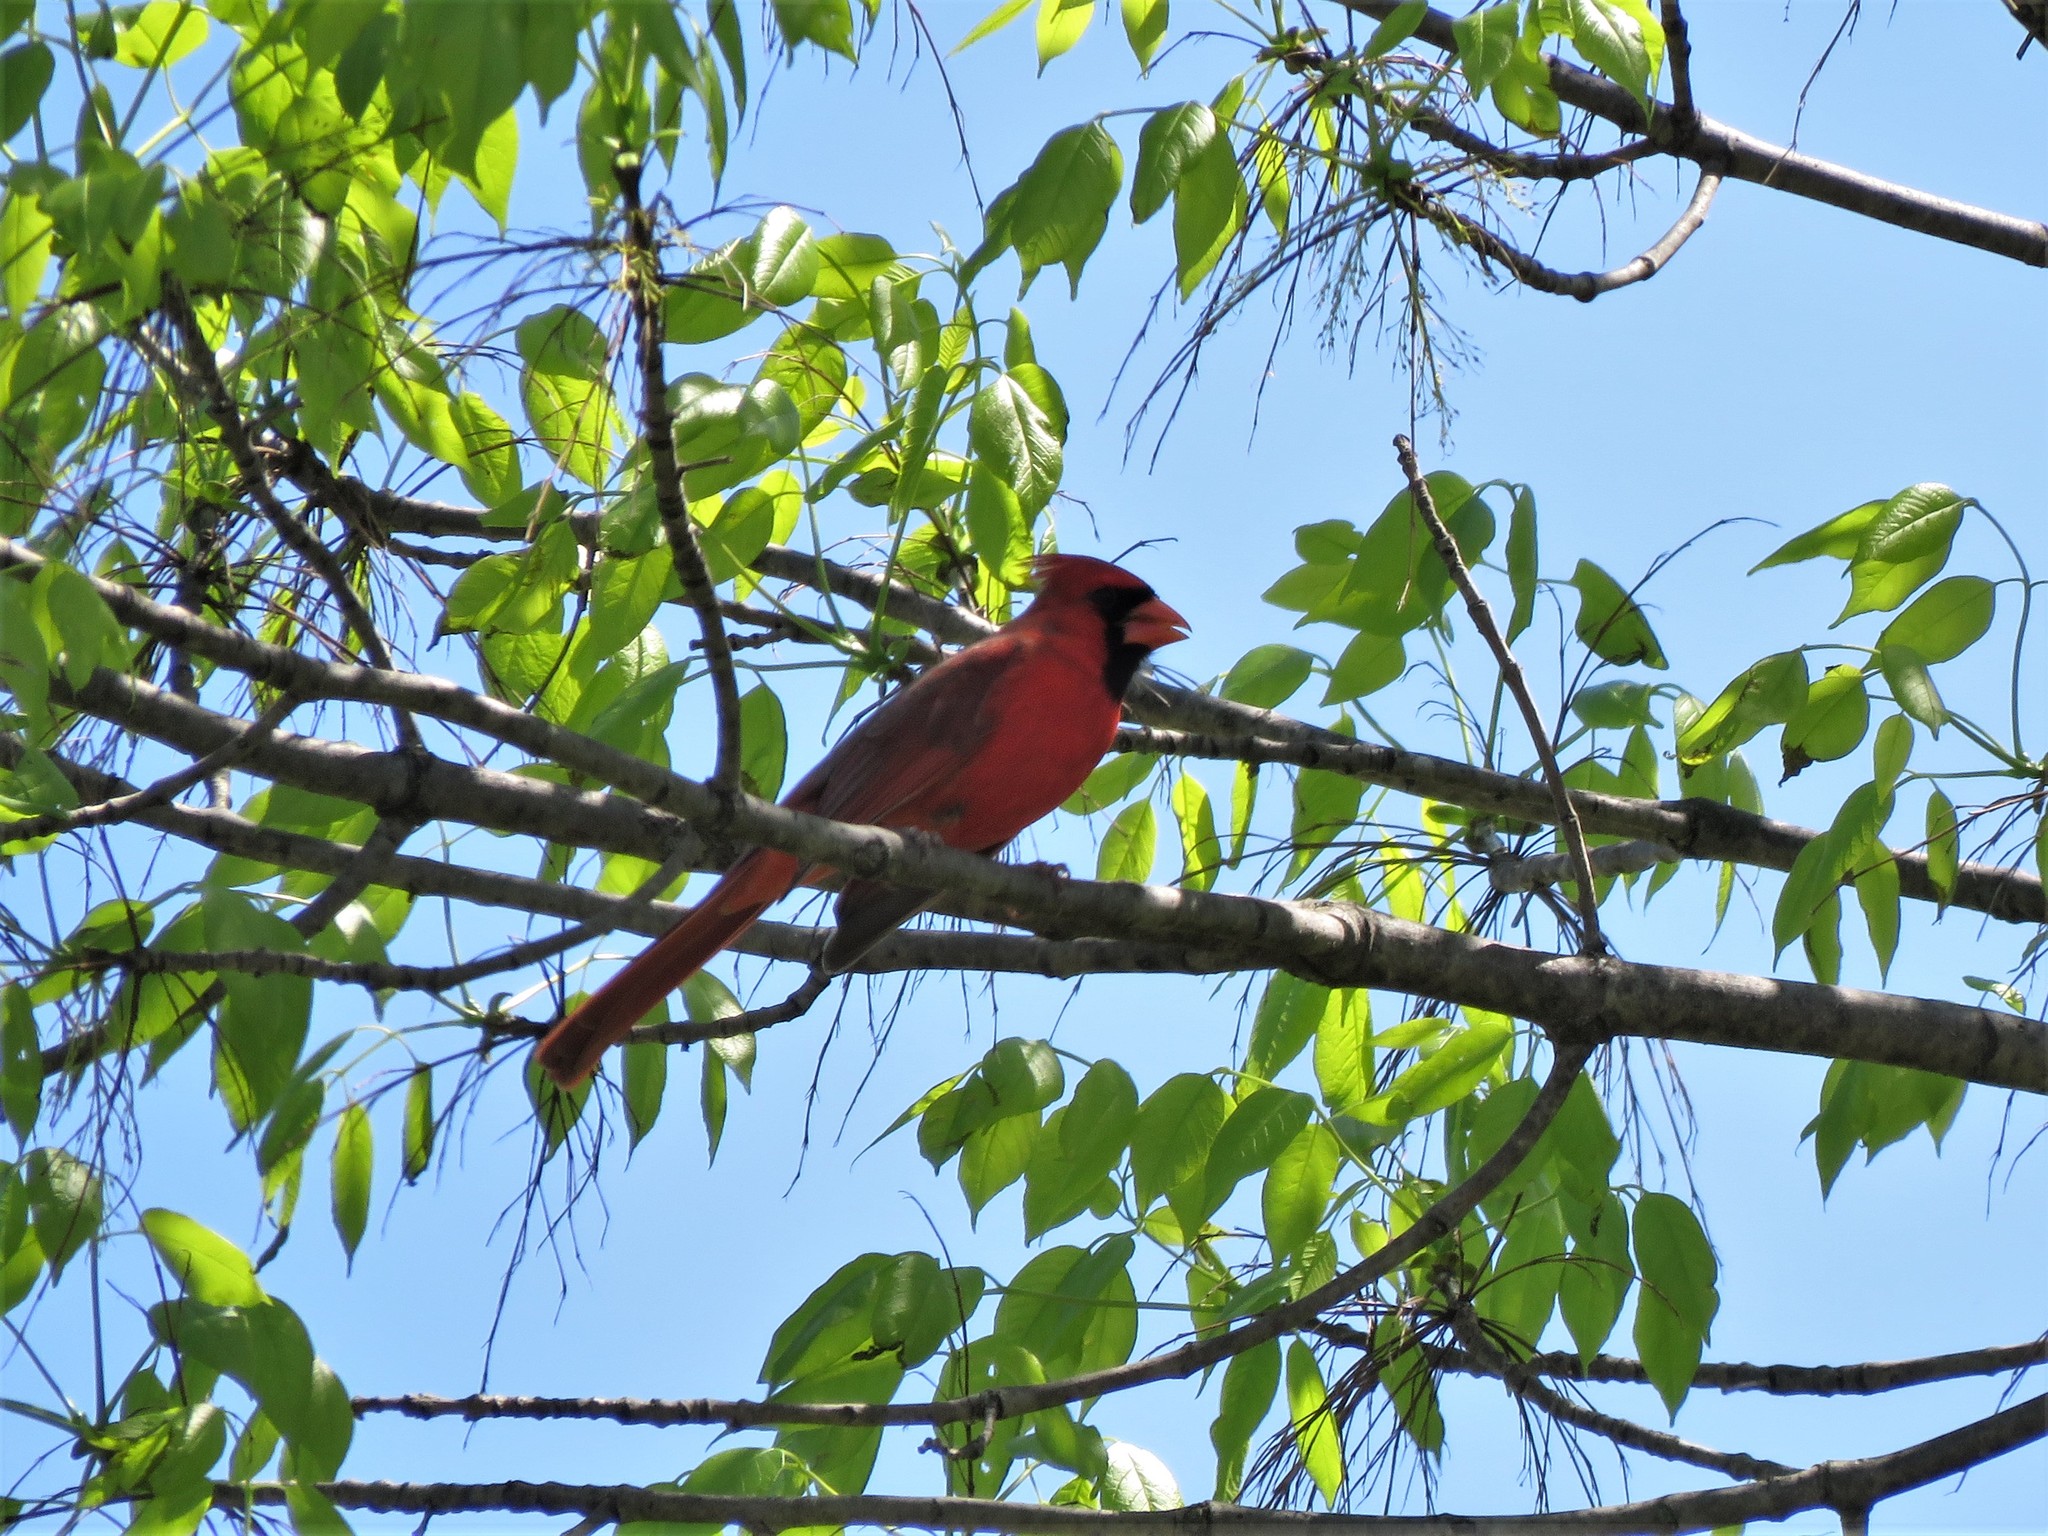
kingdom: Animalia
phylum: Chordata
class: Aves
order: Passeriformes
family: Cardinalidae
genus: Cardinalis
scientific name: Cardinalis cardinalis
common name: Northern cardinal
